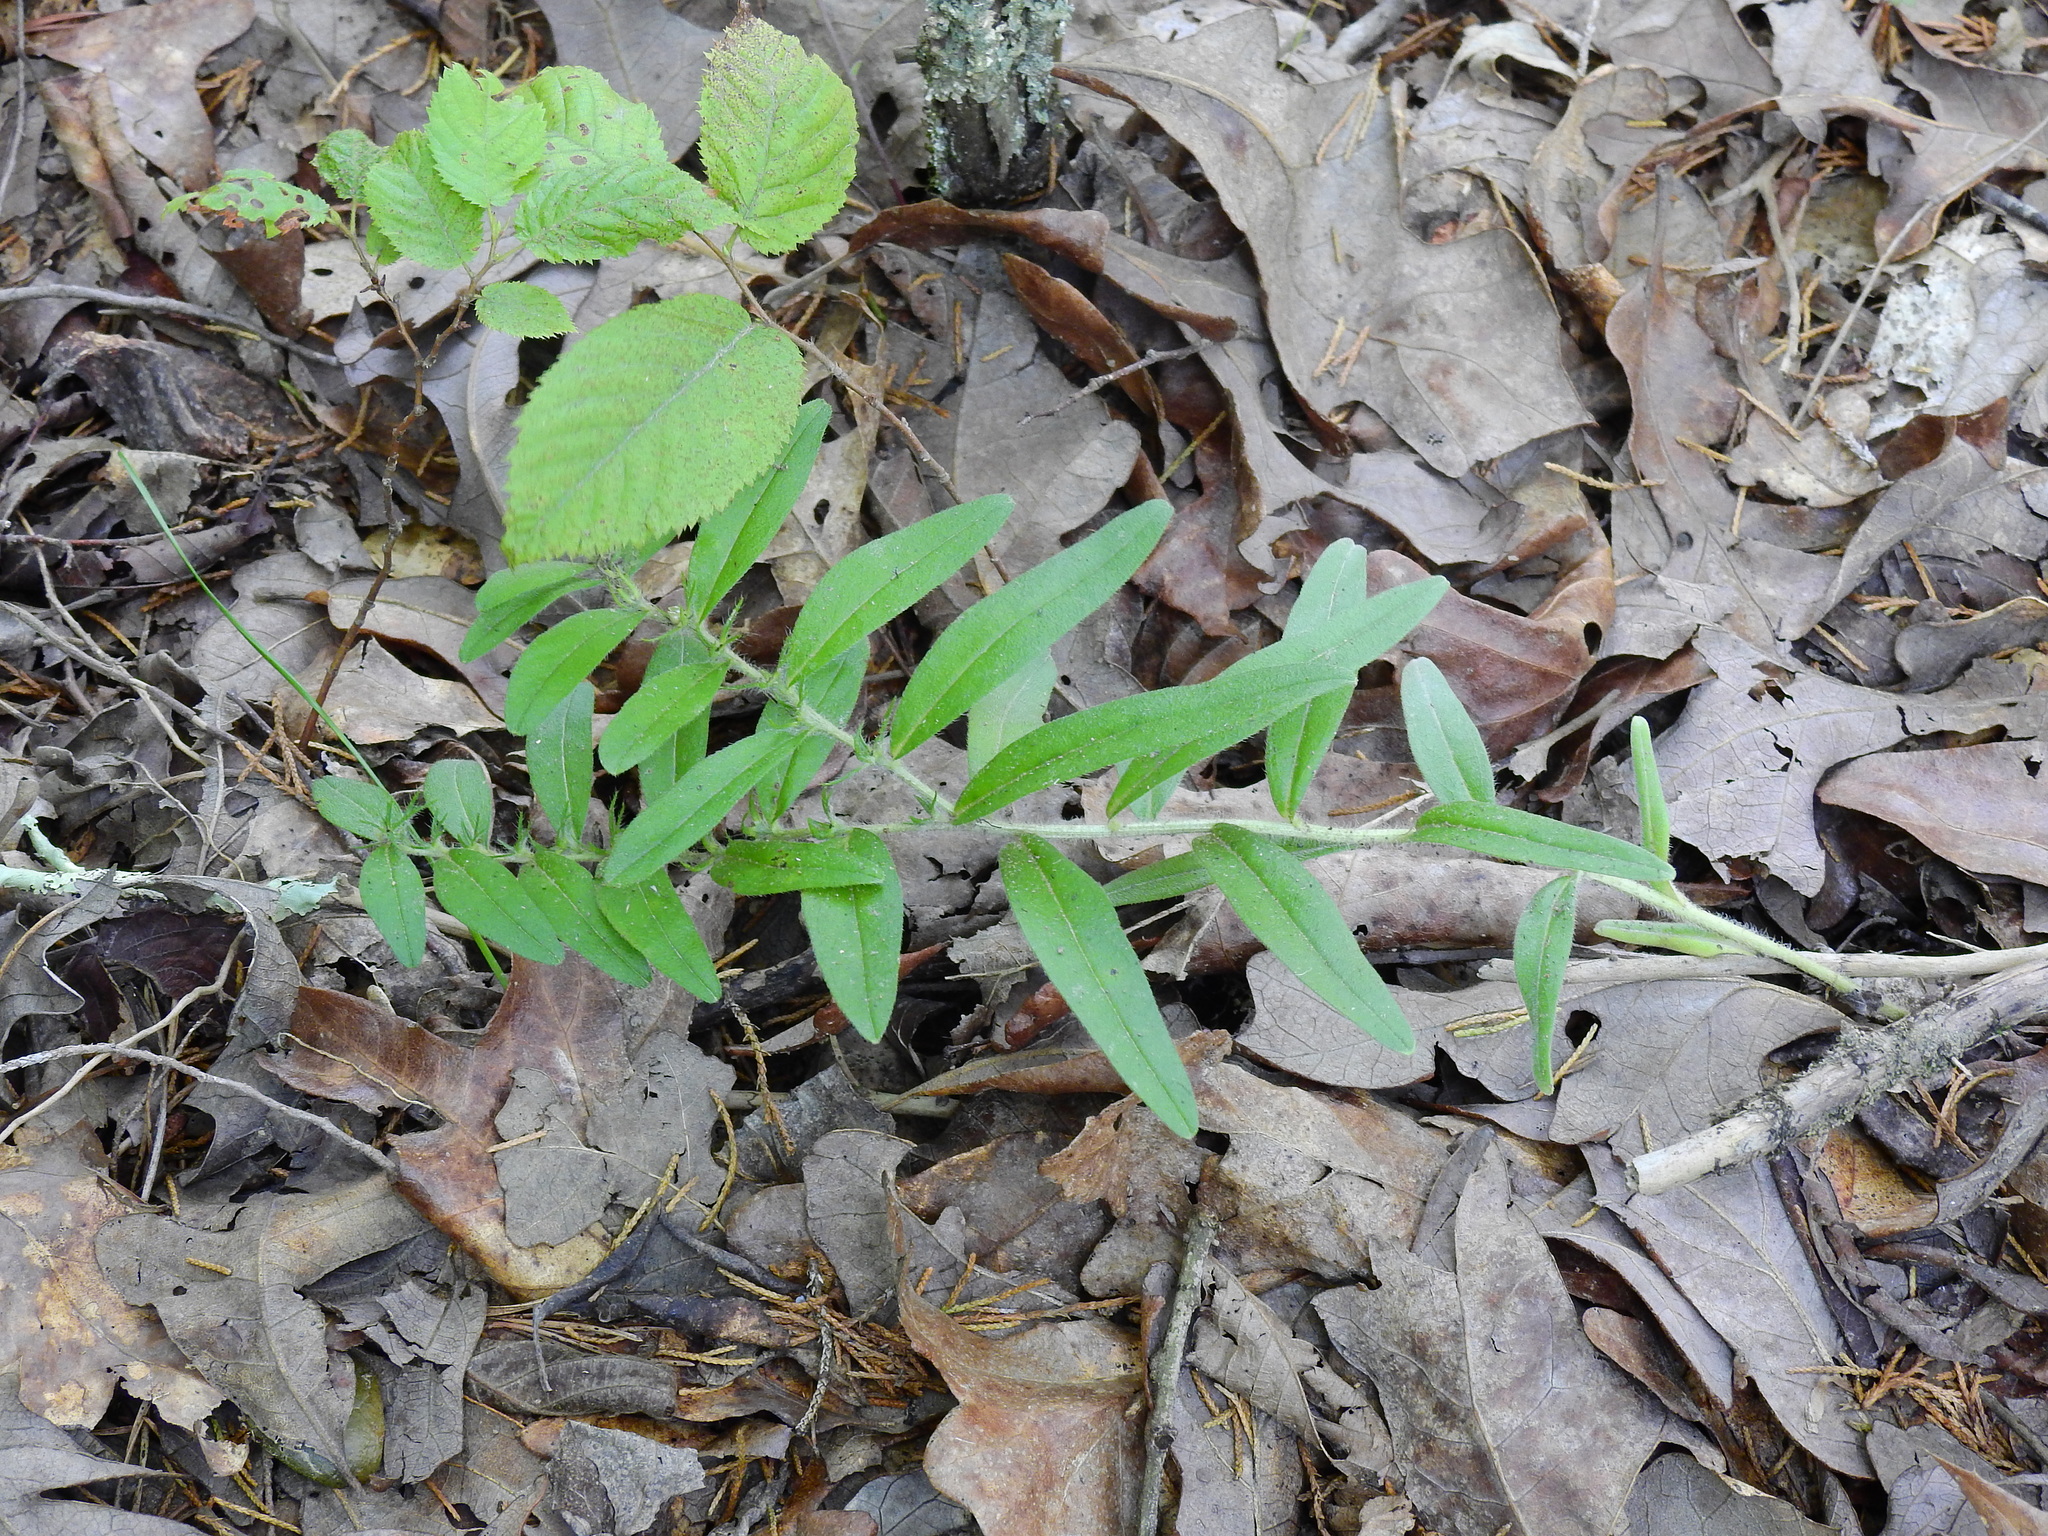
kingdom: Plantae
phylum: Tracheophyta
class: Magnoliopsida
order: Boraginales
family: Boraginaceae
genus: Lithospermum
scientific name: Lithospermum parviflorum
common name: Hairy false gromwell
